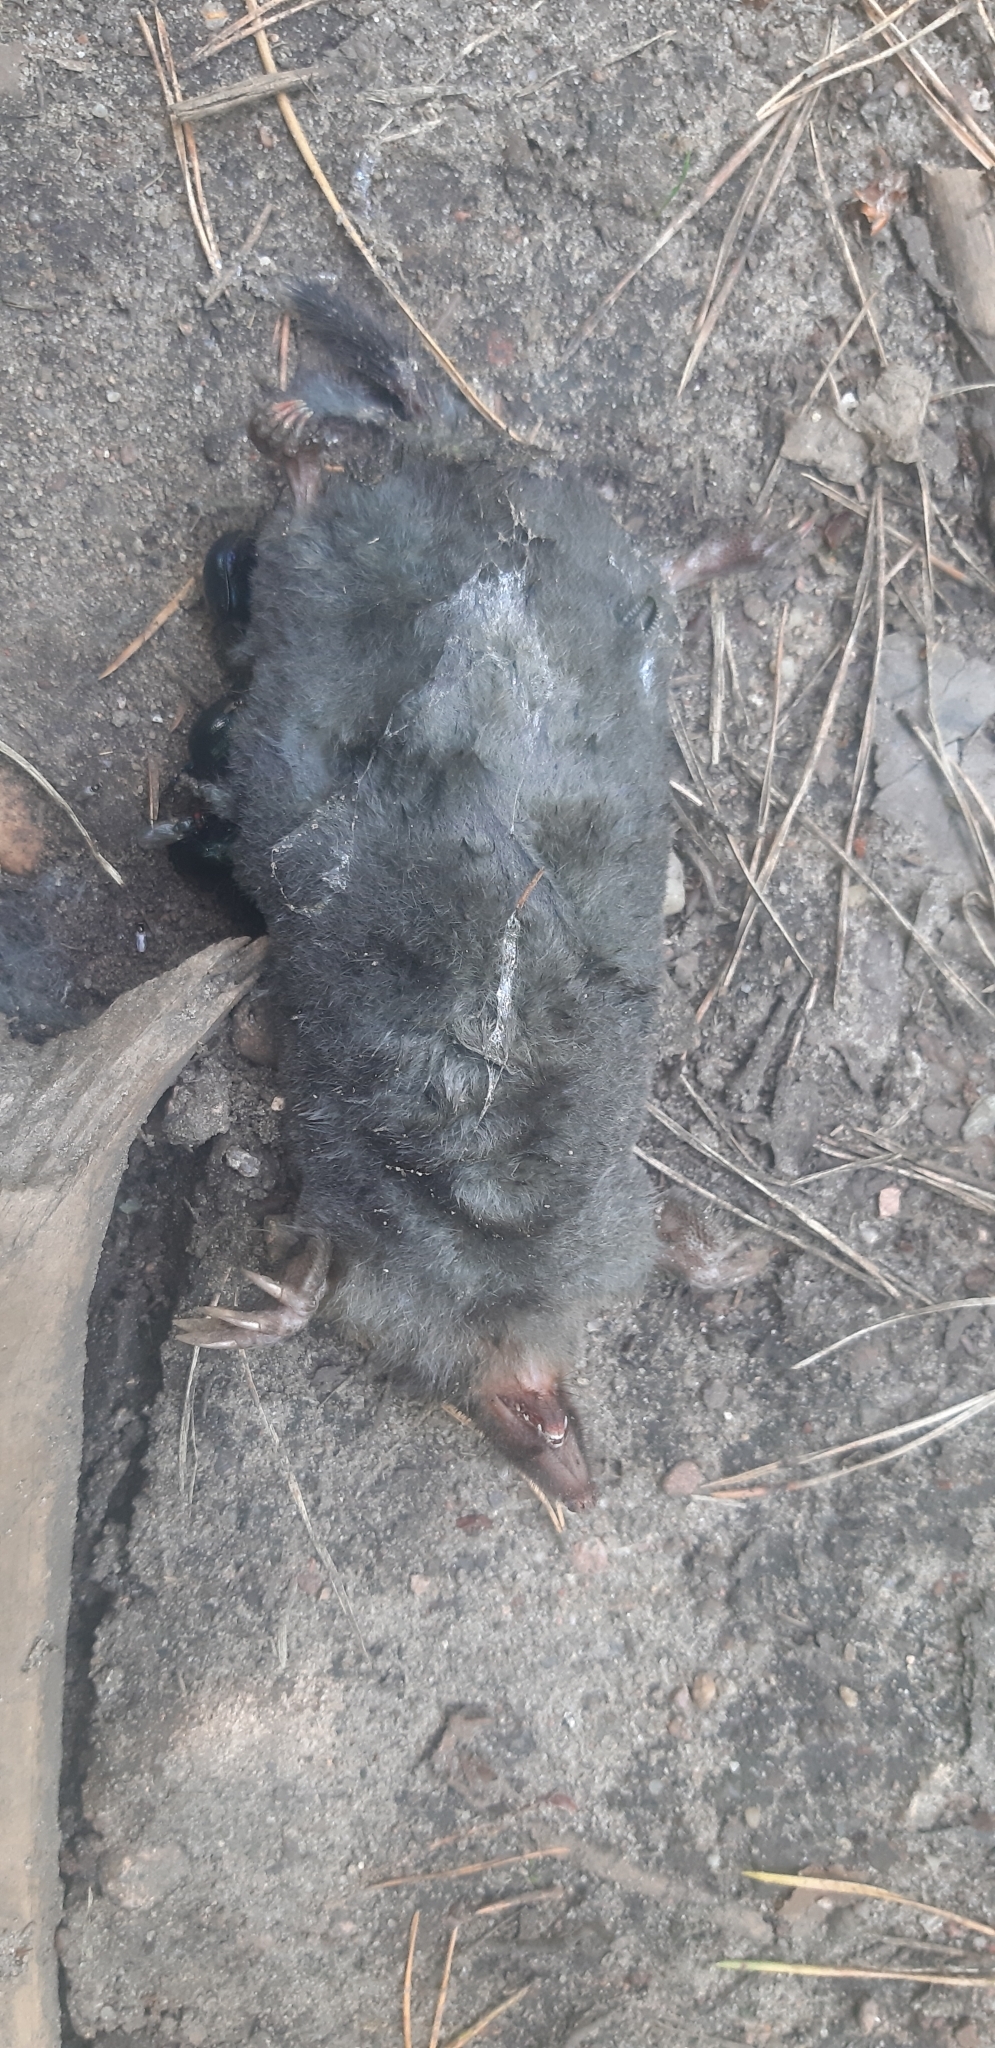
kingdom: Animalia
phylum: Chordata
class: Mammalia
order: Soricomorpha
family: Talpidae
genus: Talpa
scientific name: Talpa europaea
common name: European mole
